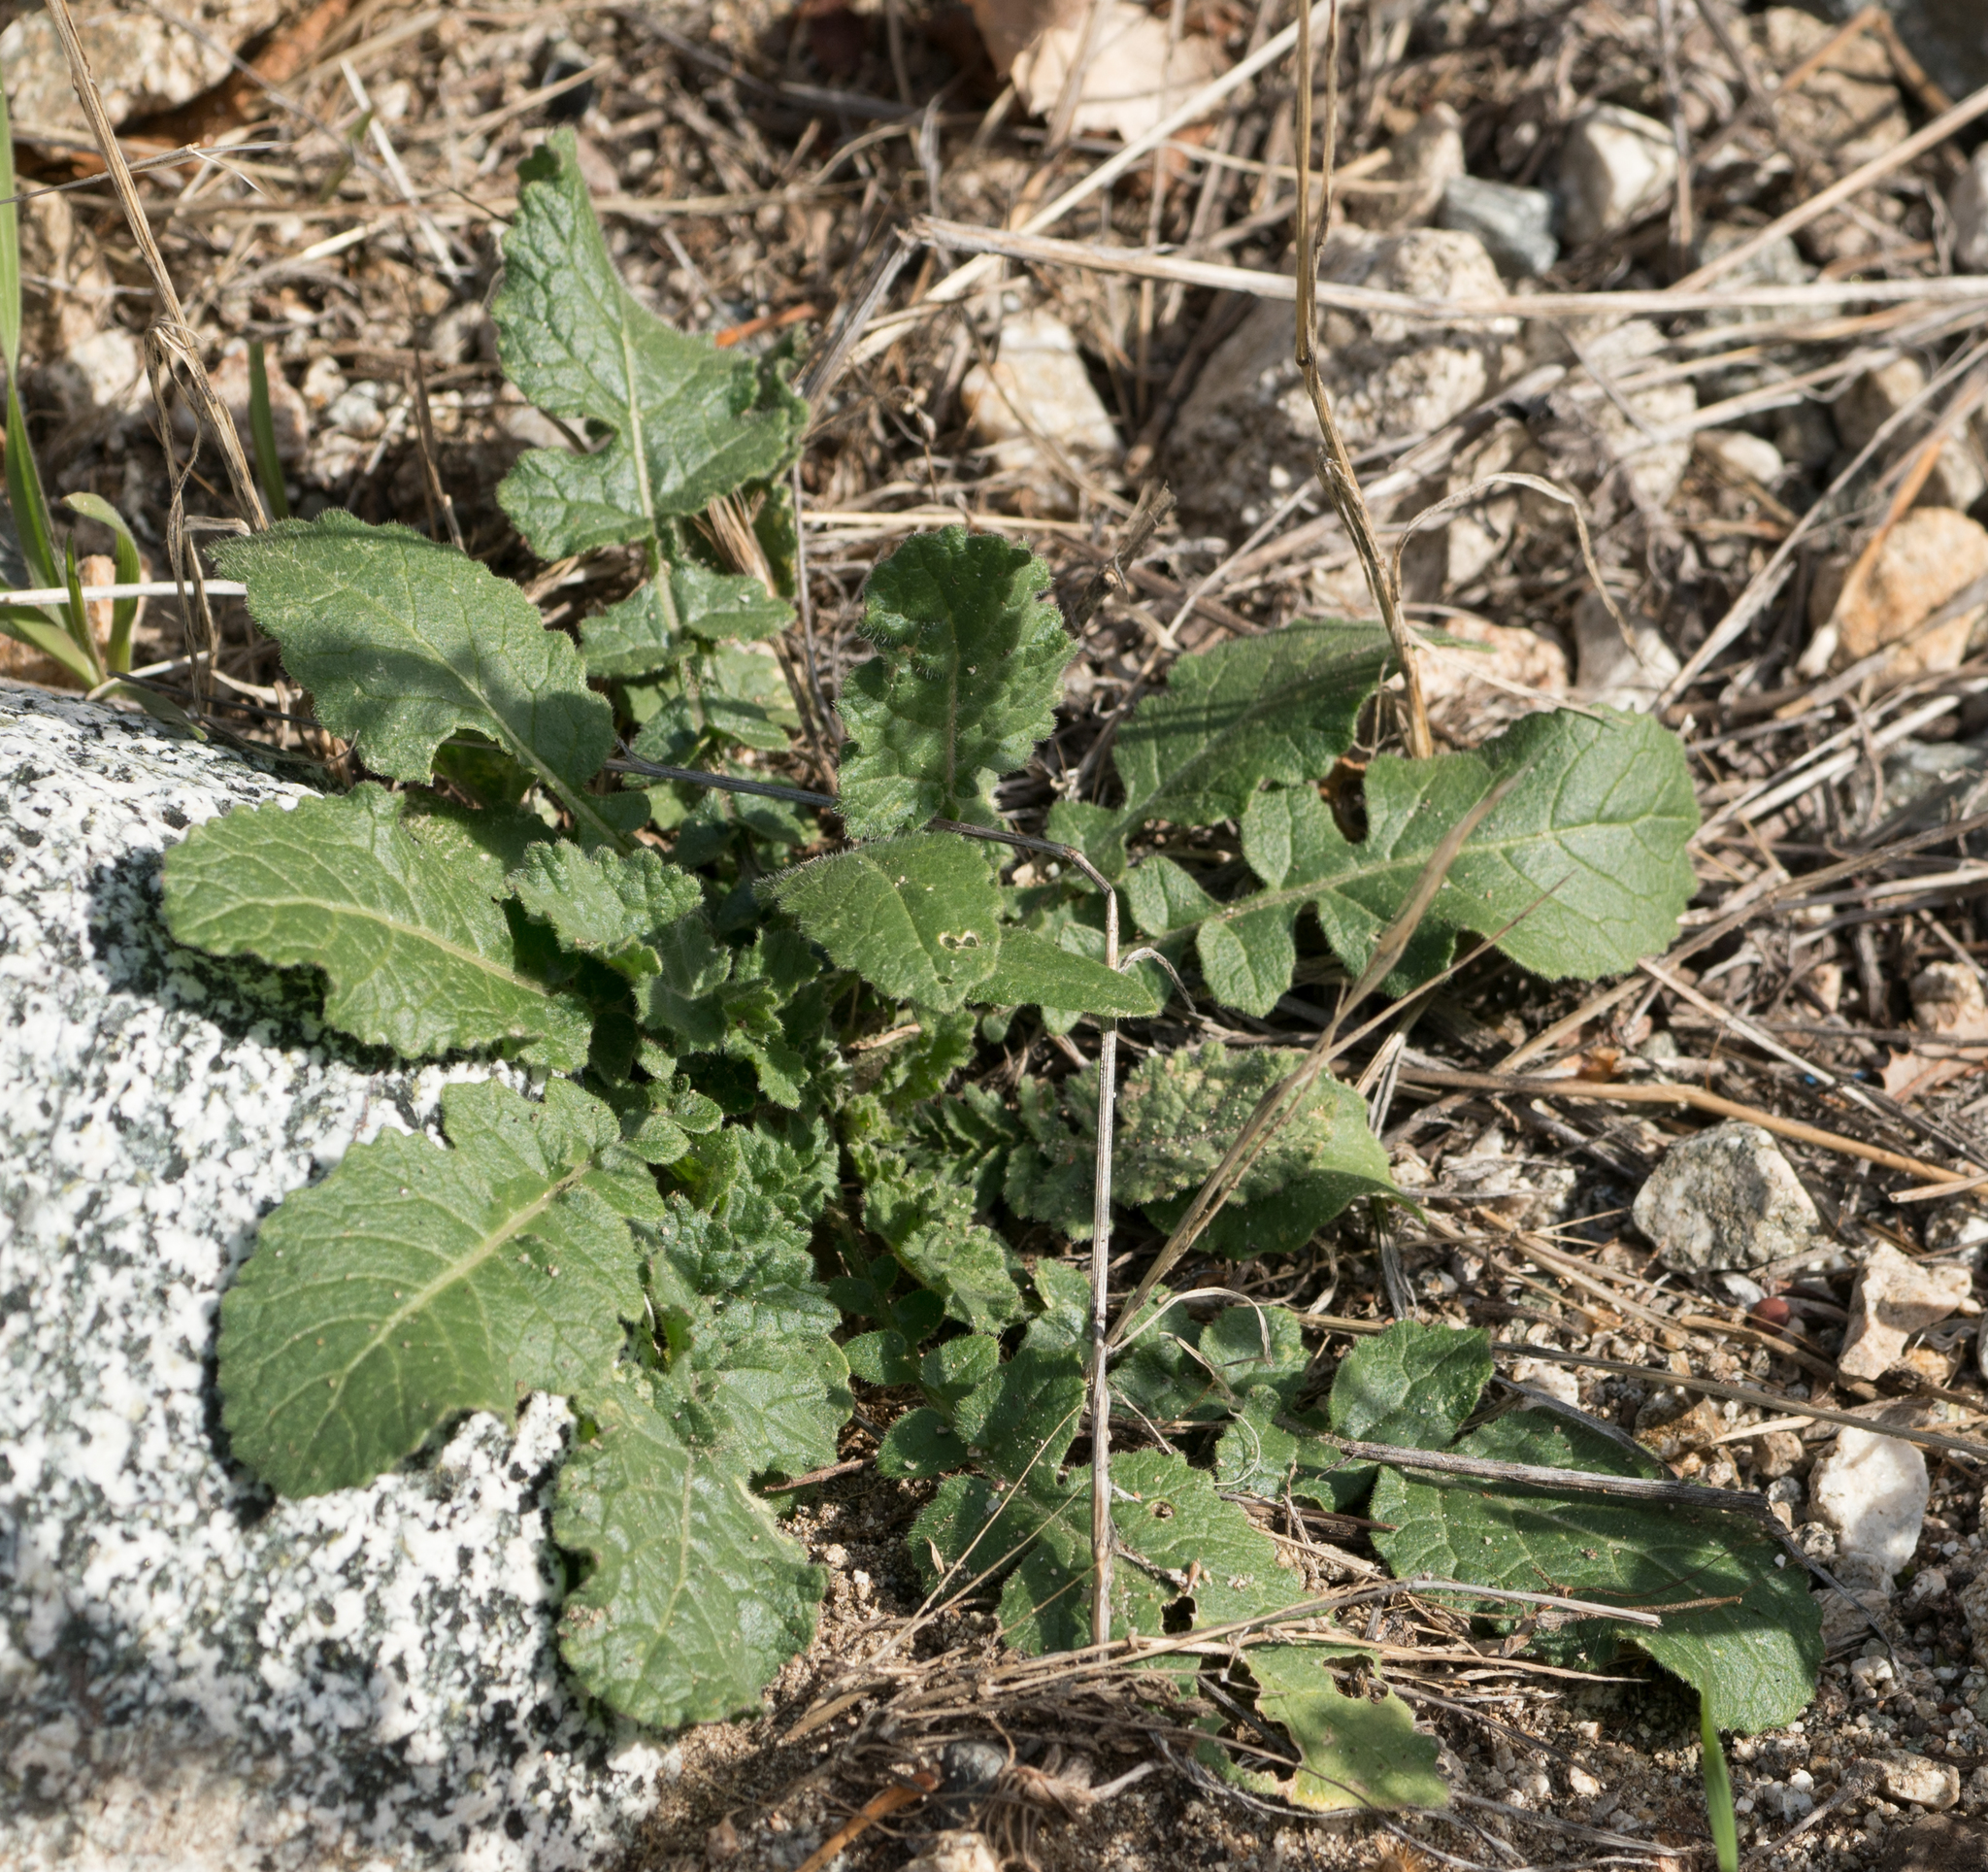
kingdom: Plantae
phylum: Tracheophyta
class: Magnoliopsida
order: Brassicales
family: Brassicaceae
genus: Hirschfeldia
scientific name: Hirschfeldia incana
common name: Hoary mustard
